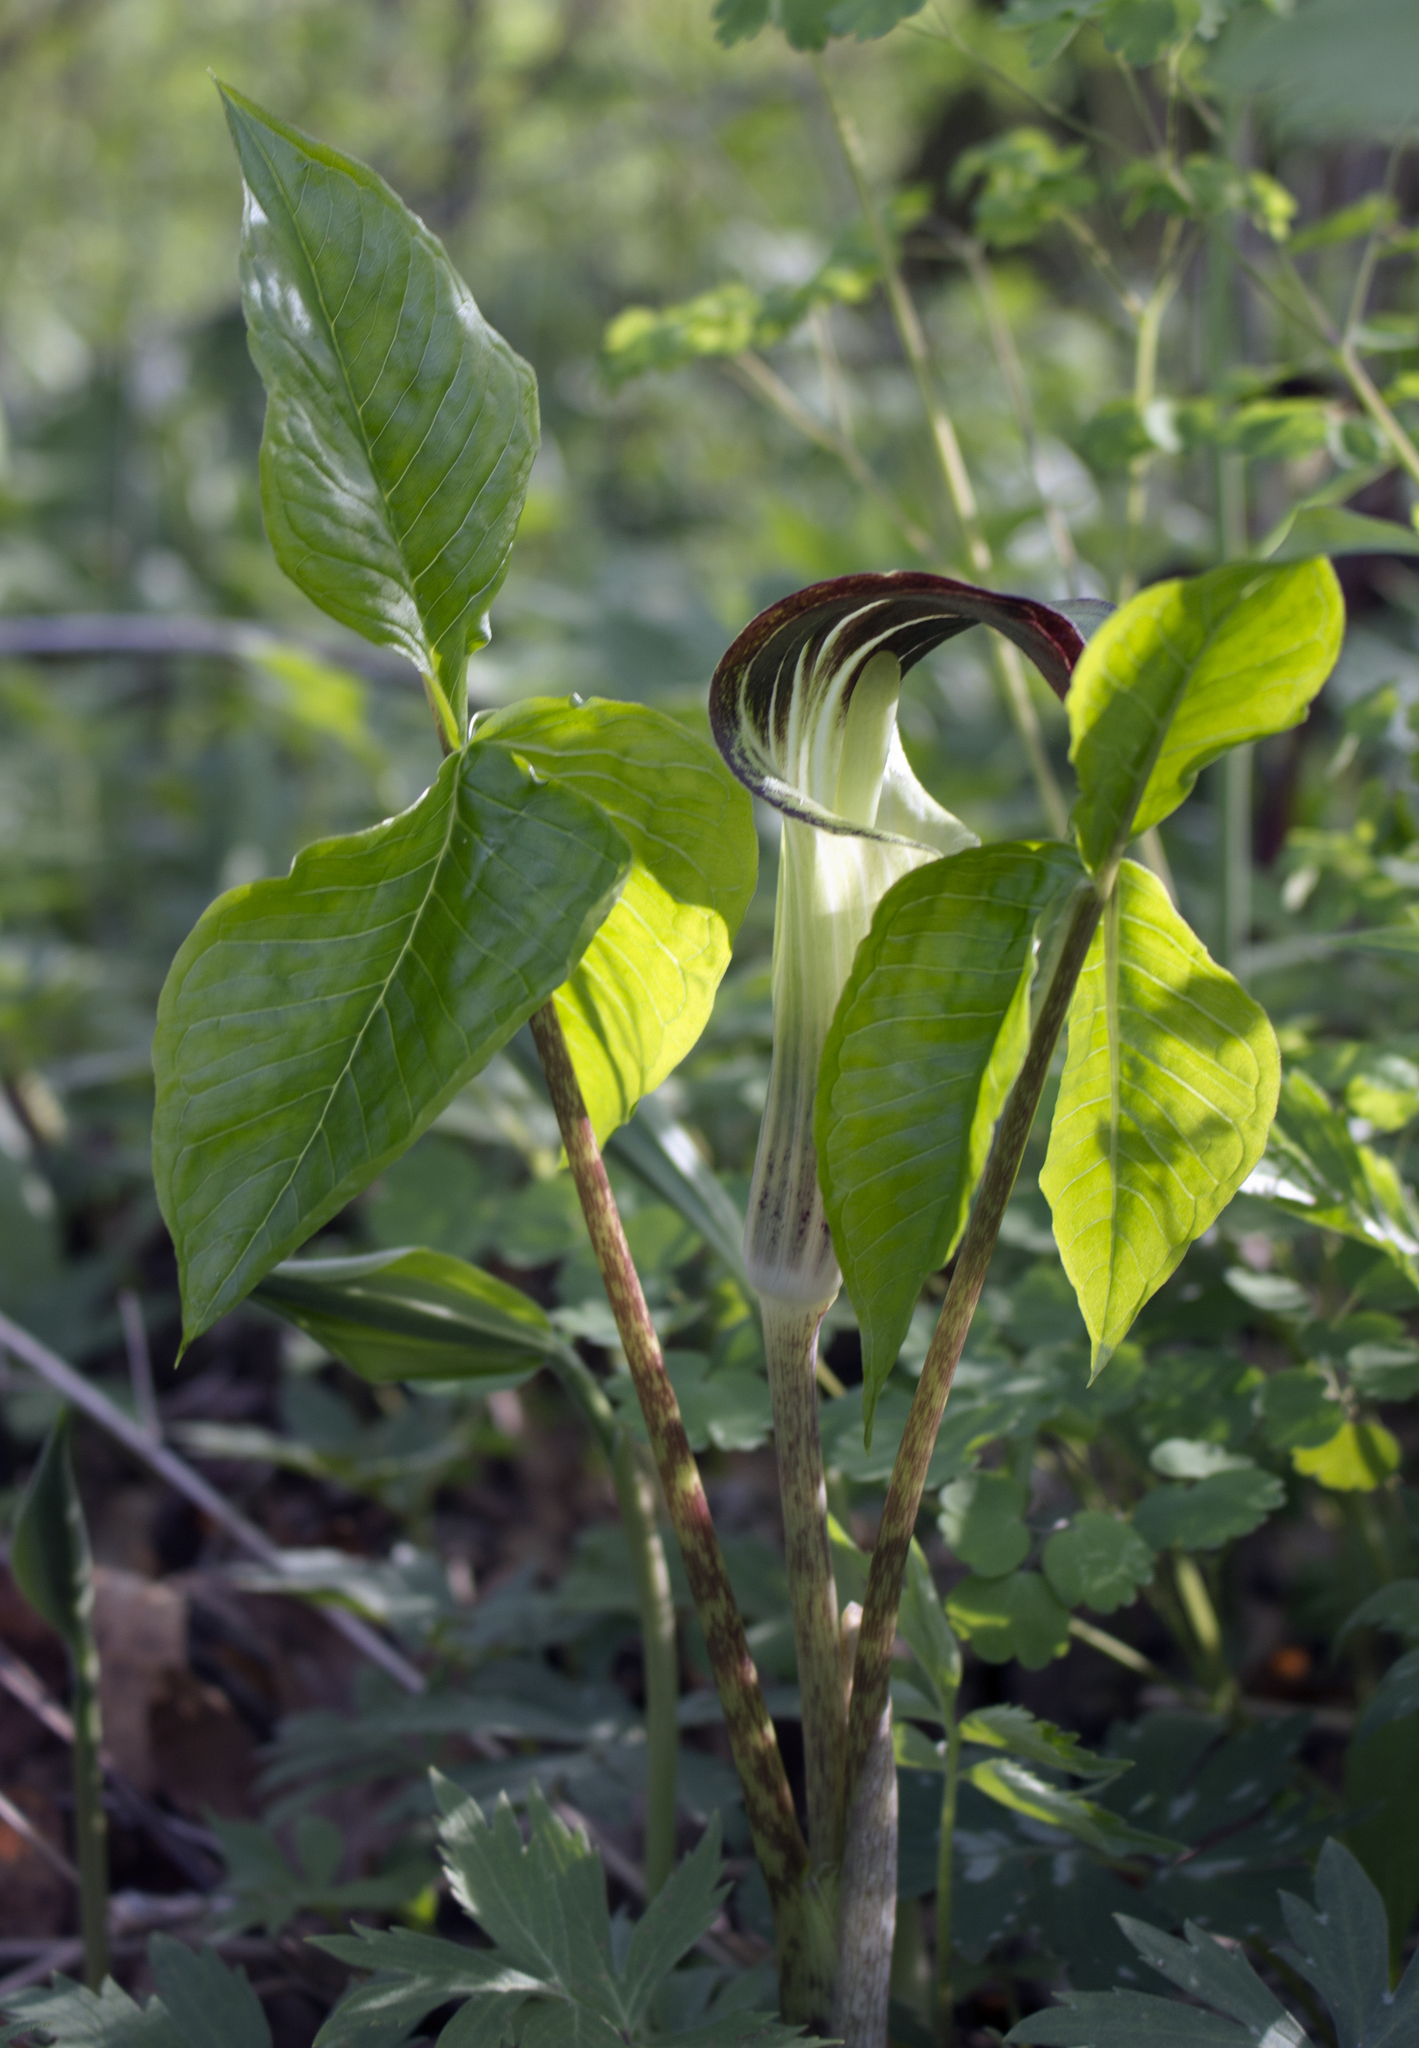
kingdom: Plantae
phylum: Tracheophyta
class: Liliopsida
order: Alismatales
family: Araceae
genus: Arisaema
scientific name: Arisaema triphyllum
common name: Jack-in-the-pulpit
